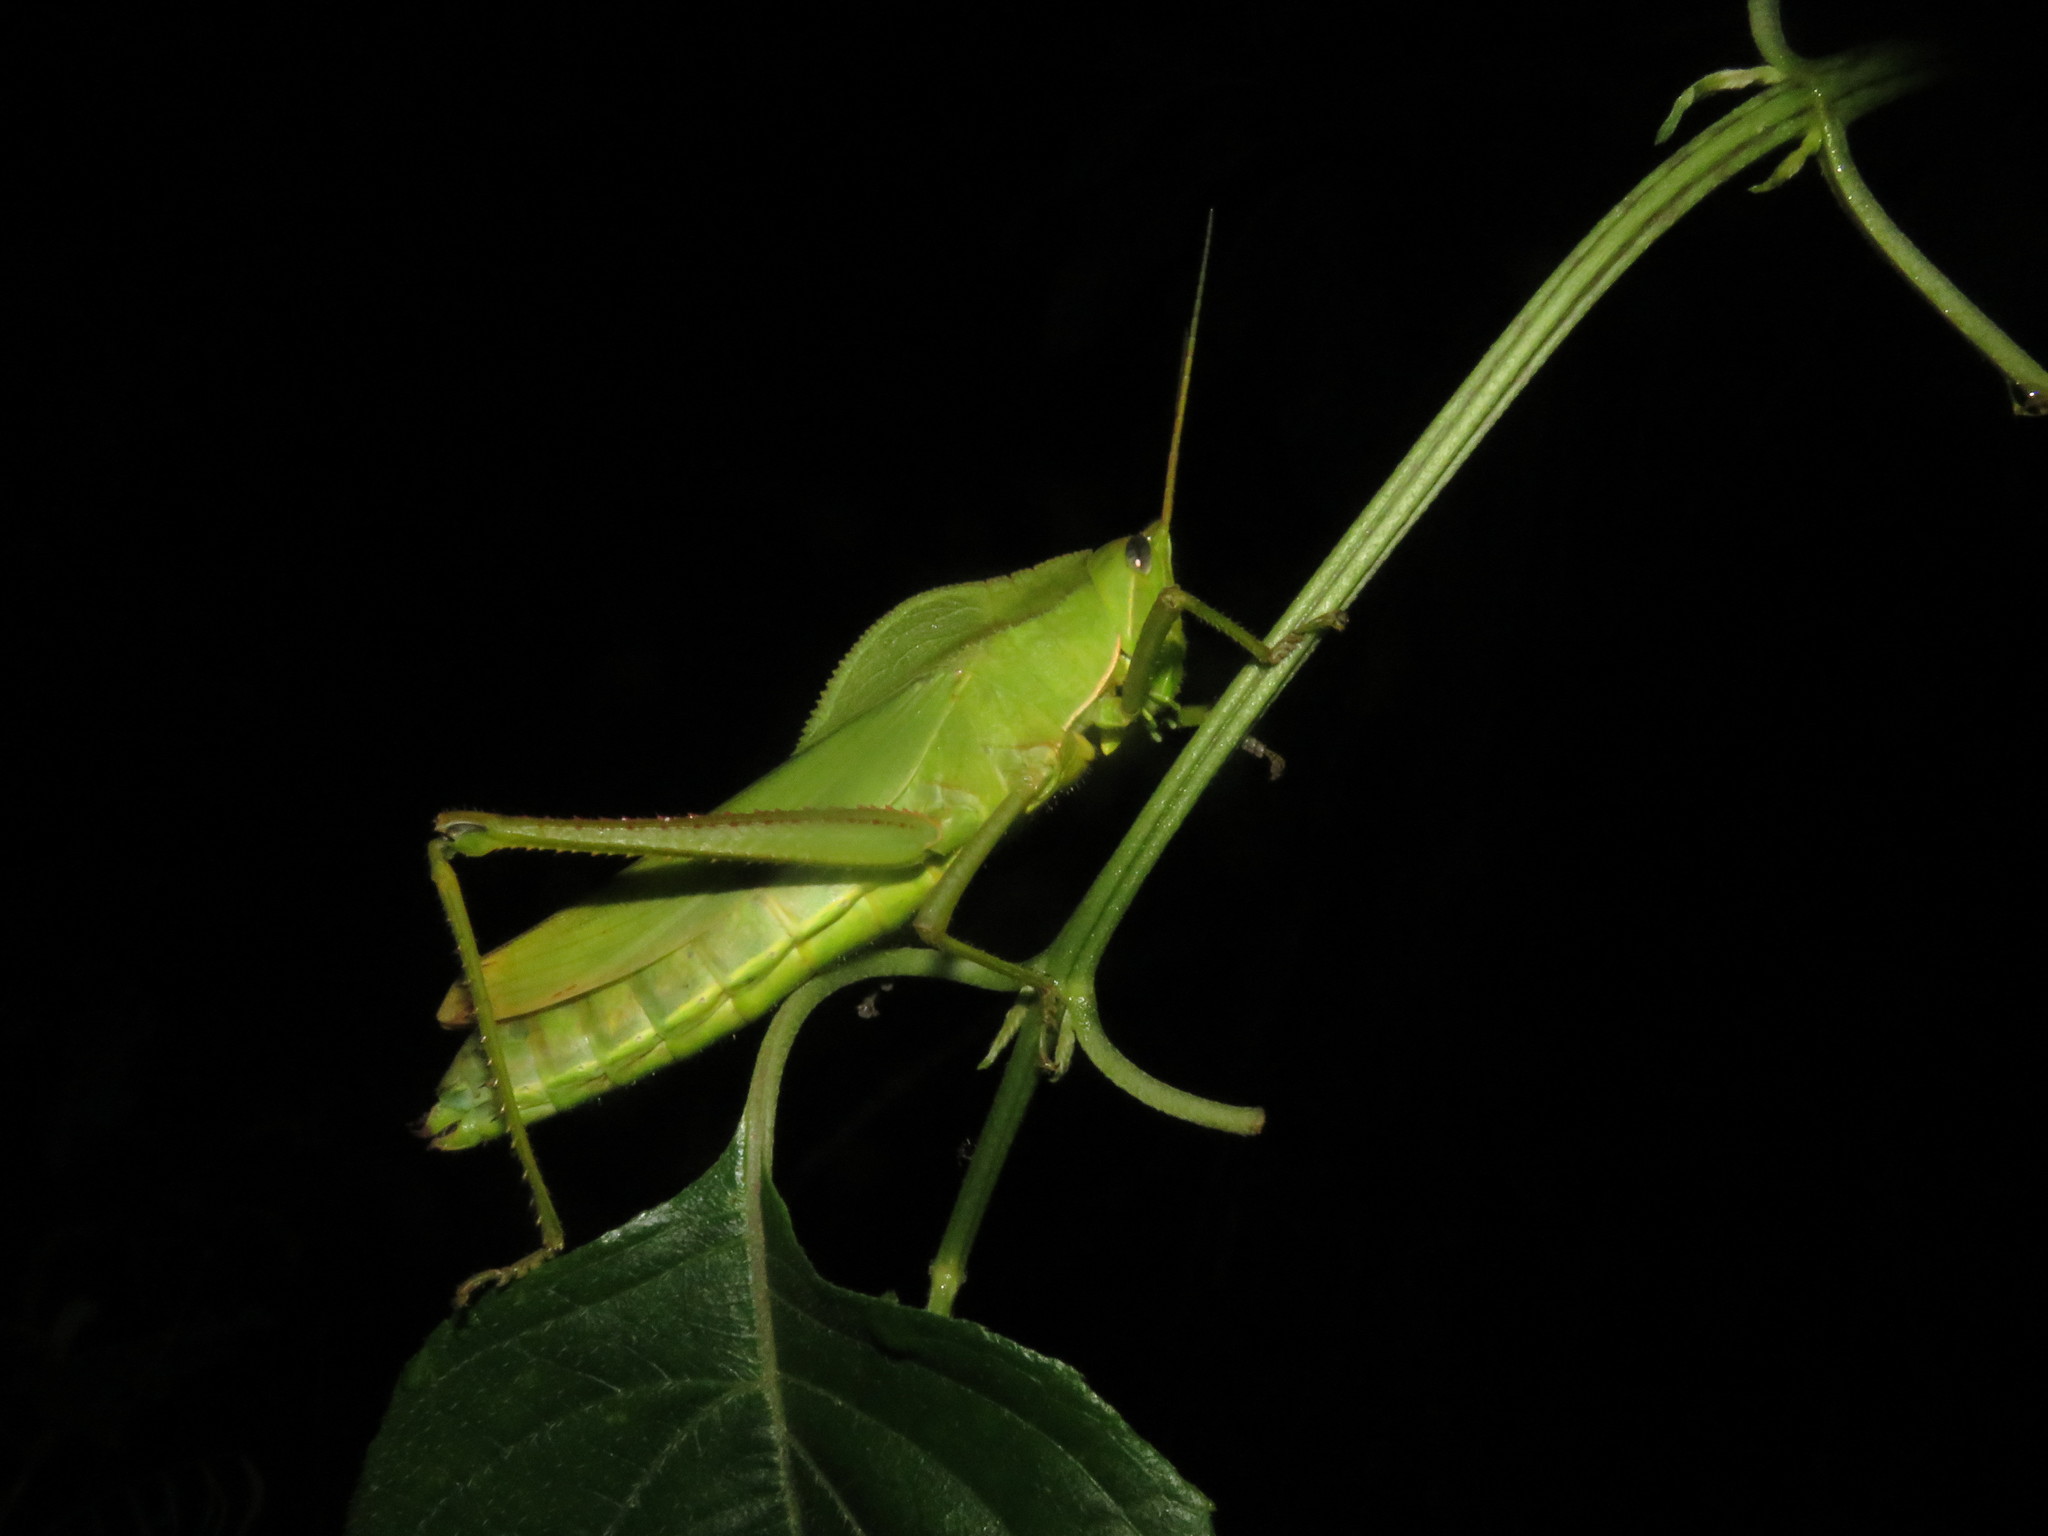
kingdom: Animalia
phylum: Arthropoda
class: Insecta
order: Orthoptera
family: Romaleidae
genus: Prionolopha
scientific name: Prionolopha serrata
